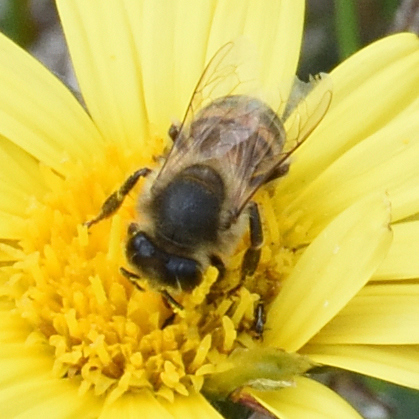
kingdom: Animalia
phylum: Arthropoda
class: Insecta
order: Hymenoptera
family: Apidae
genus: Apis
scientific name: Apis mellifera
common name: Honey bee
